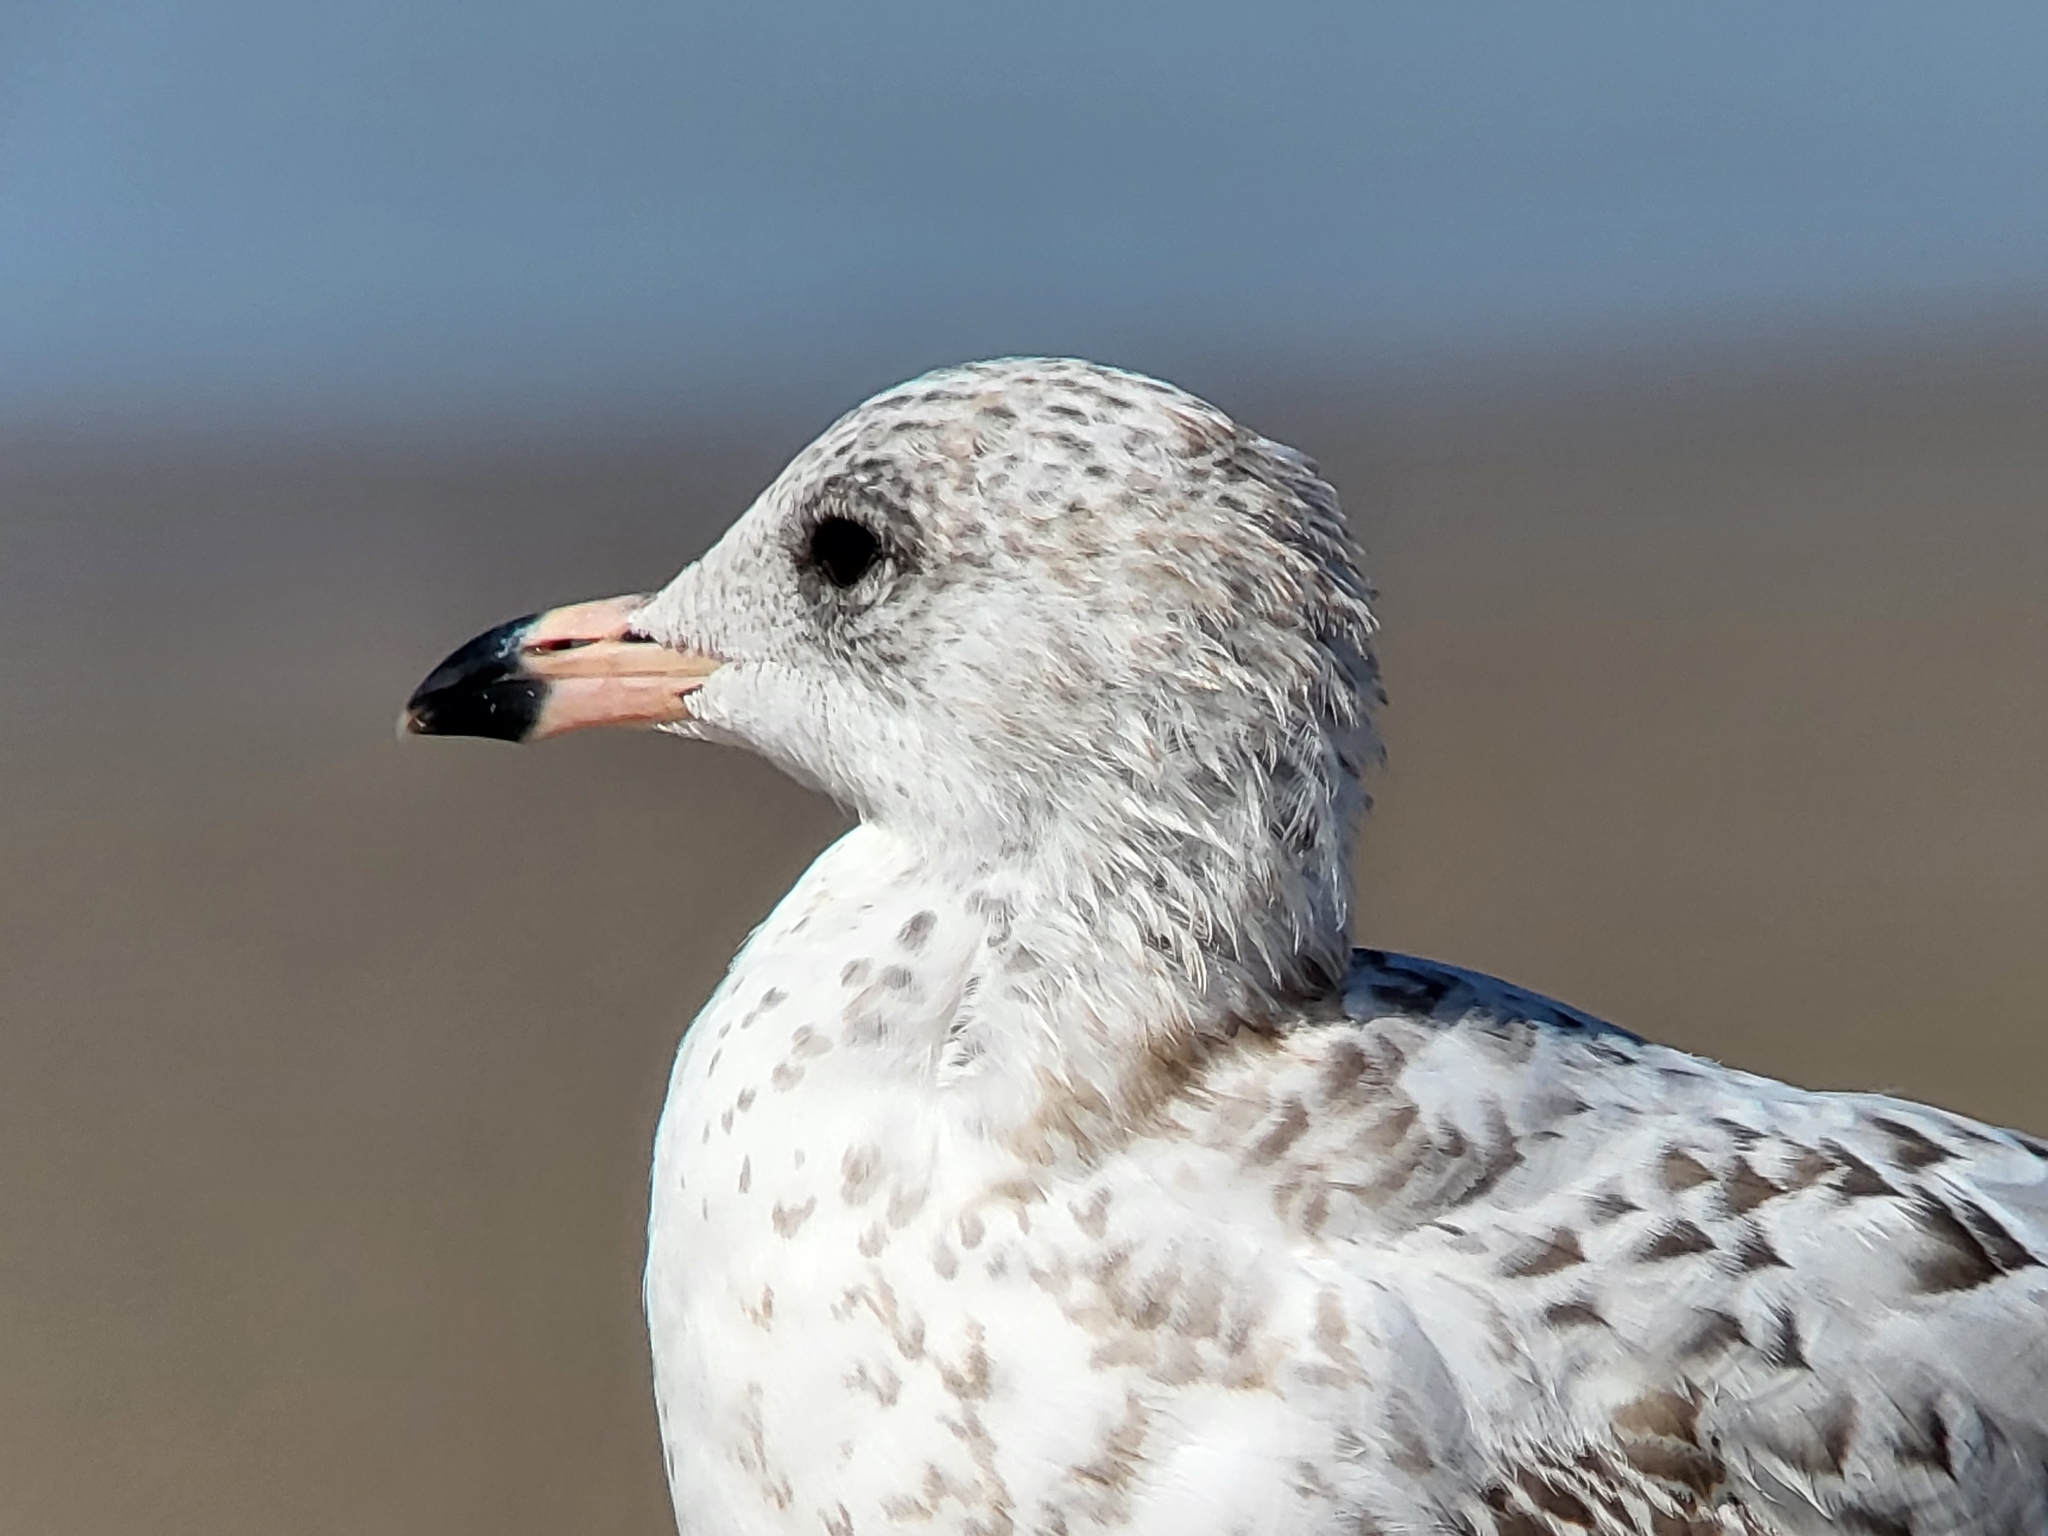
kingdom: Animalia
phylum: Chordata
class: Aves
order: Charadriiformes
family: Laridae
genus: Larus
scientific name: Larus delawarensis
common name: Ring-billed gull
